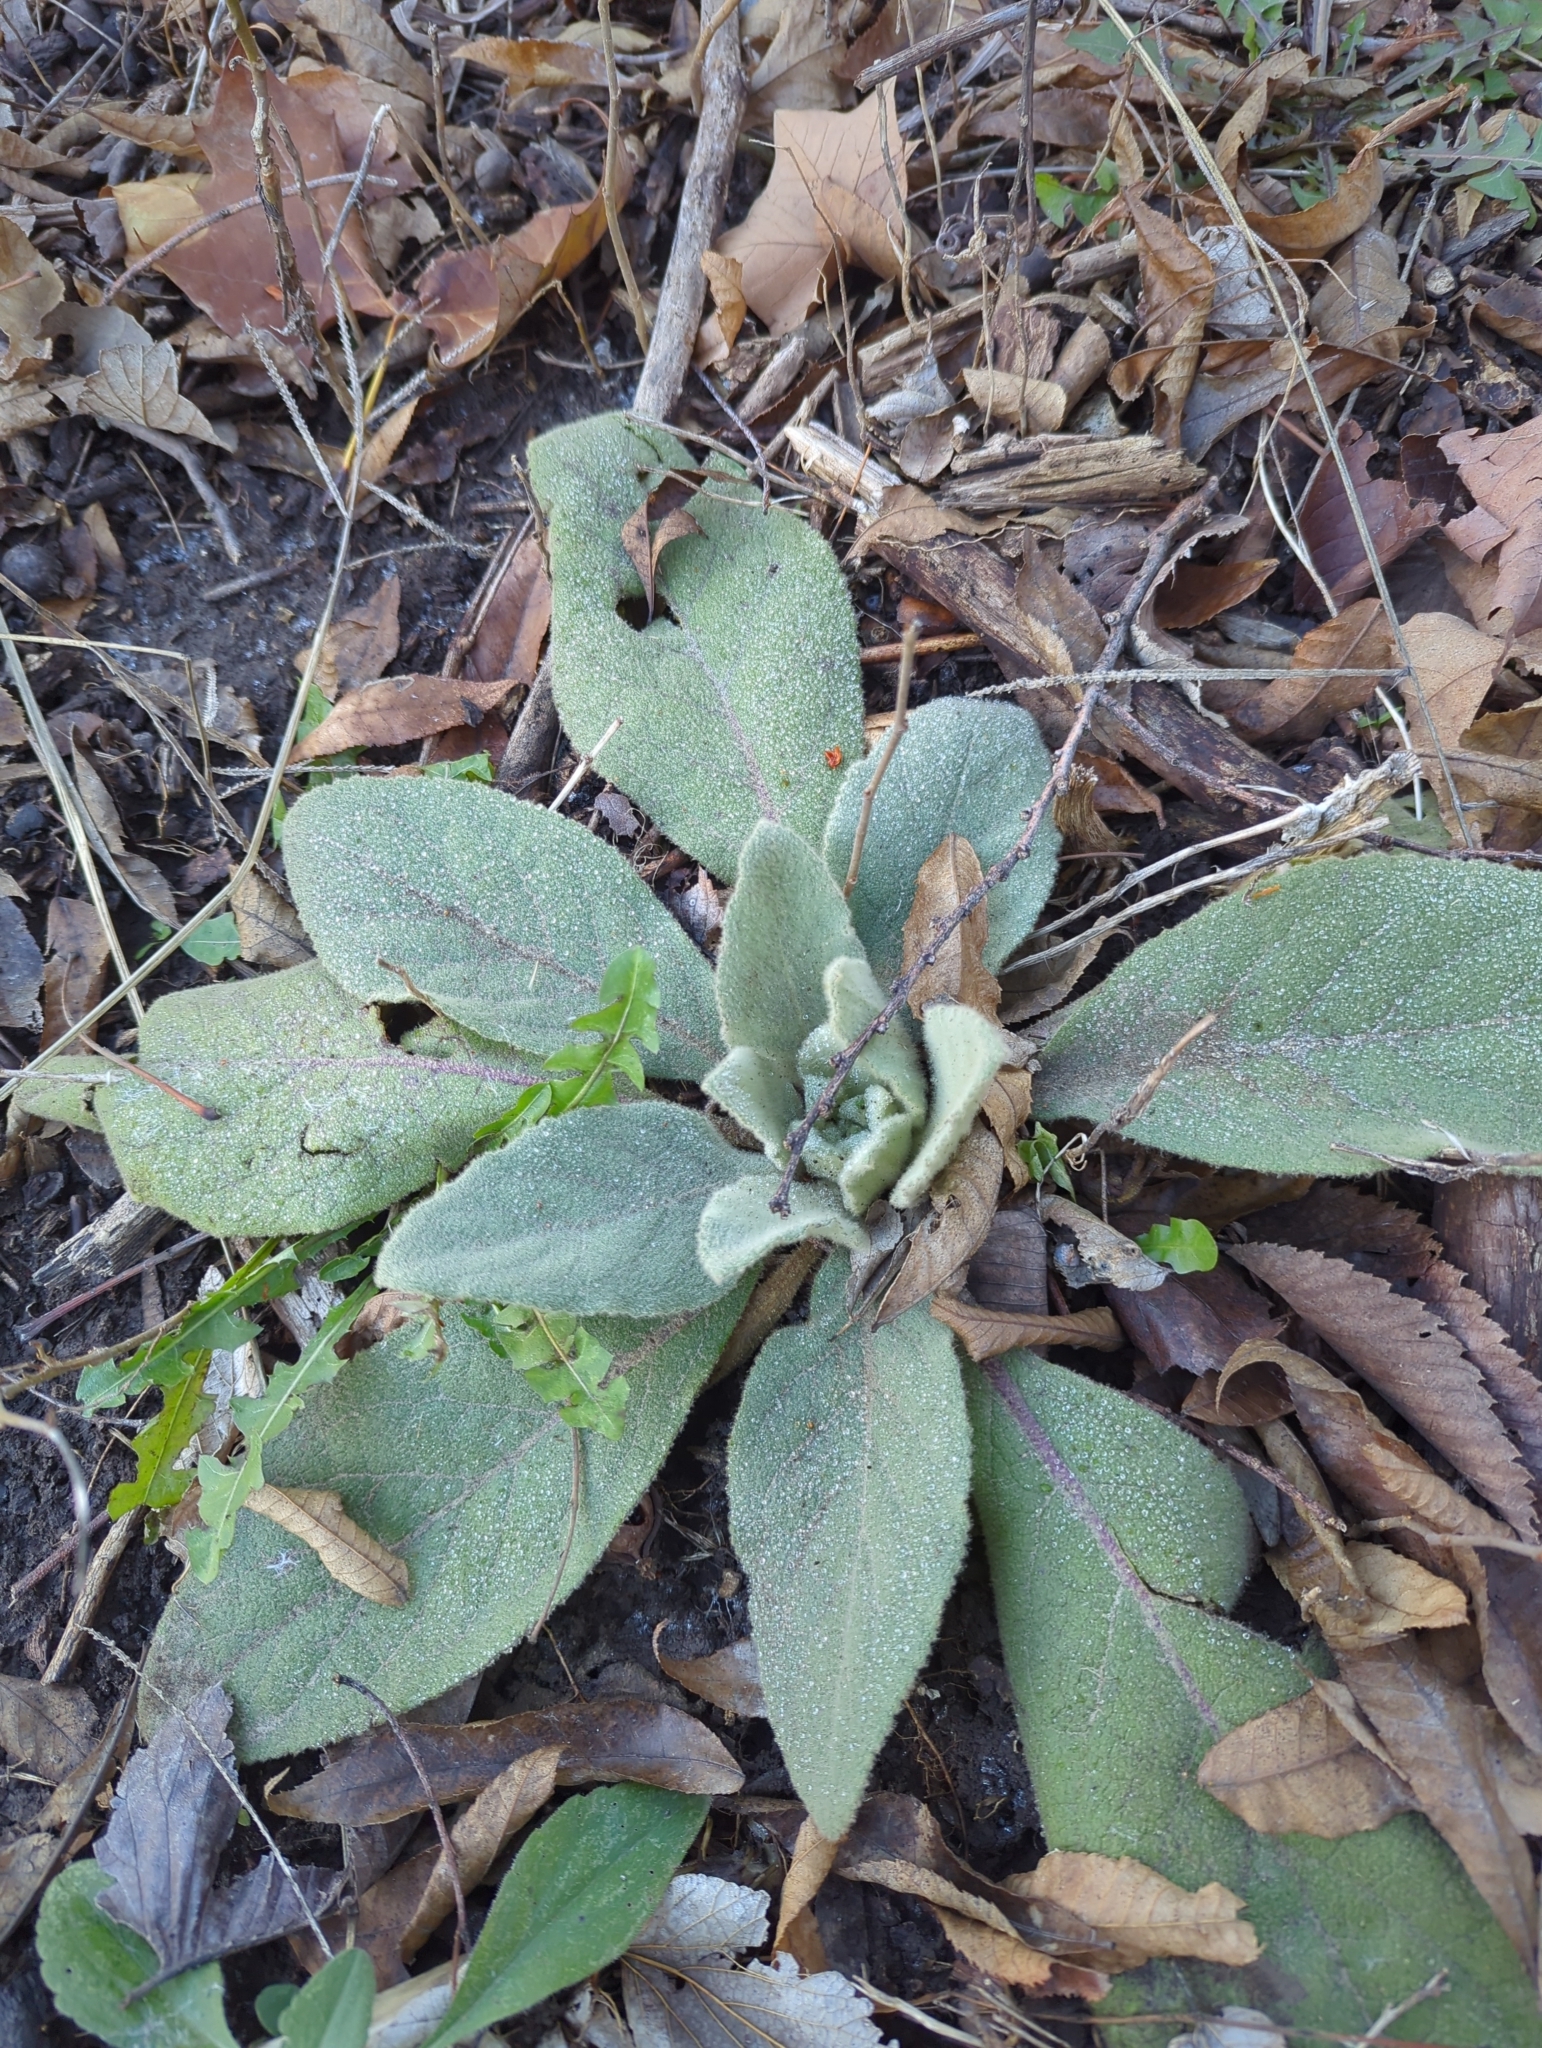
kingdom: Plantae
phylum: Tracheophyta
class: Magnoliopsida
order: Lamiales
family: Scrophulariaceae
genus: Verbascum
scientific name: Verbascum thapsus
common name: Common mullein
